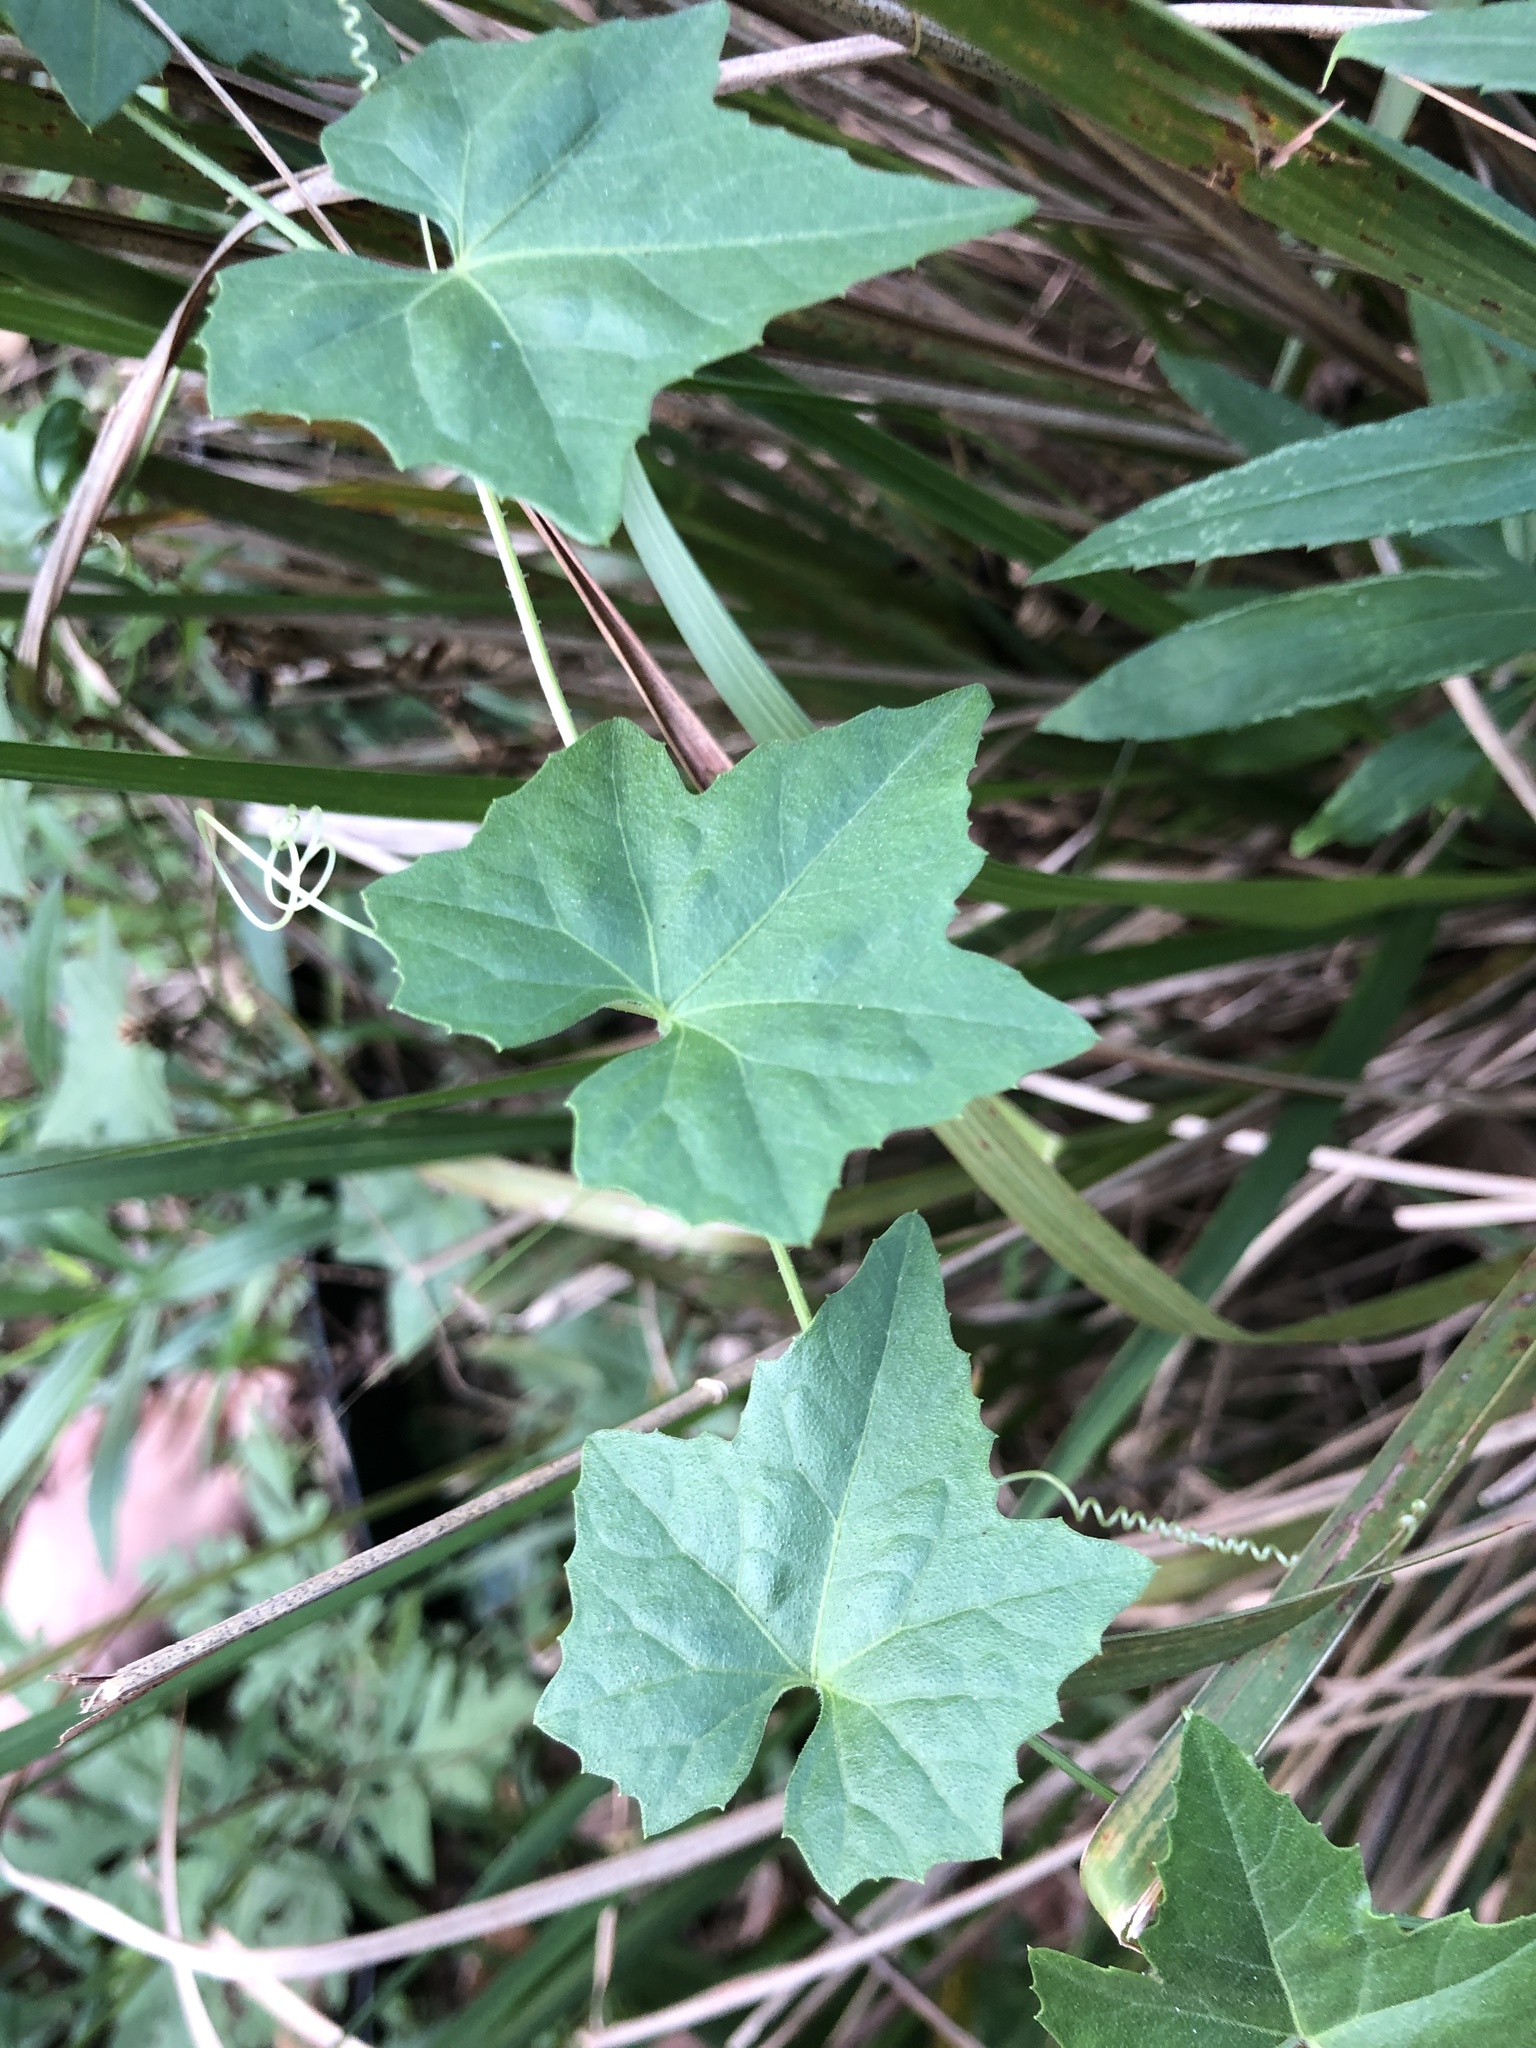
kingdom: Plantae
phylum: Tracheophyta
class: Magnoliopsida
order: Cucurbitales
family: Cucurbitaceae
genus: Melothria
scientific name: Melothria pendula
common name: Creeping-cucumber
